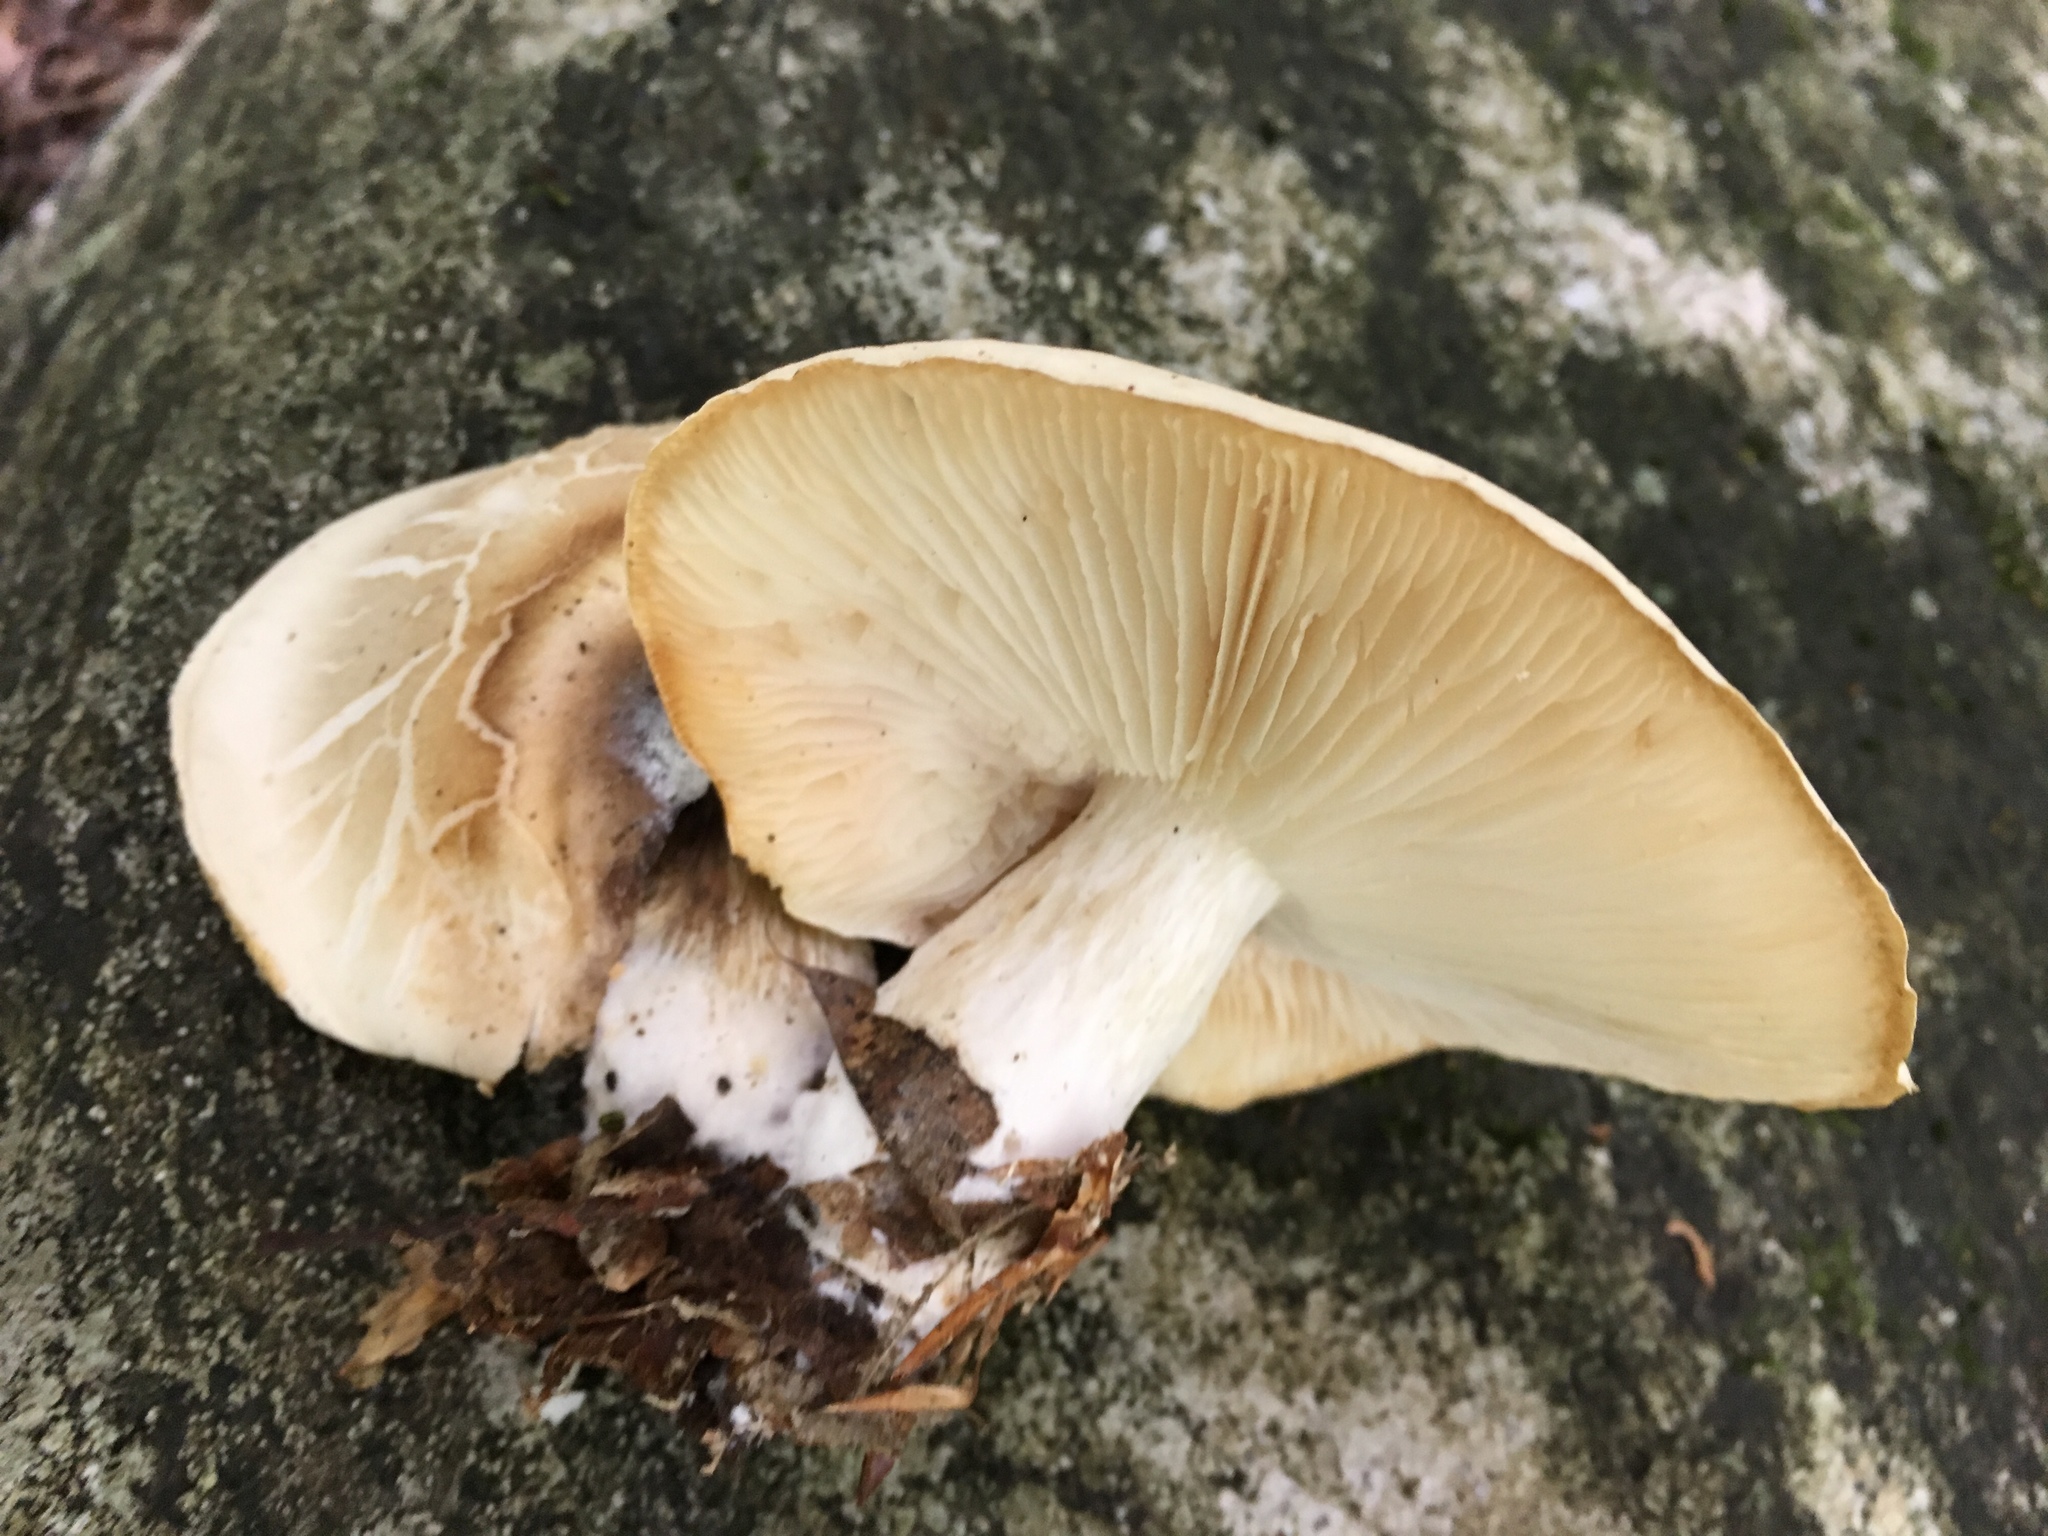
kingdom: Fungi
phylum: Basidiomycota
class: Agaricomycetes
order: Agaricales
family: Lyophyllaceae
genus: Hypsizygus
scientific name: Hypsizygus ulmarius
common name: Elm leech
